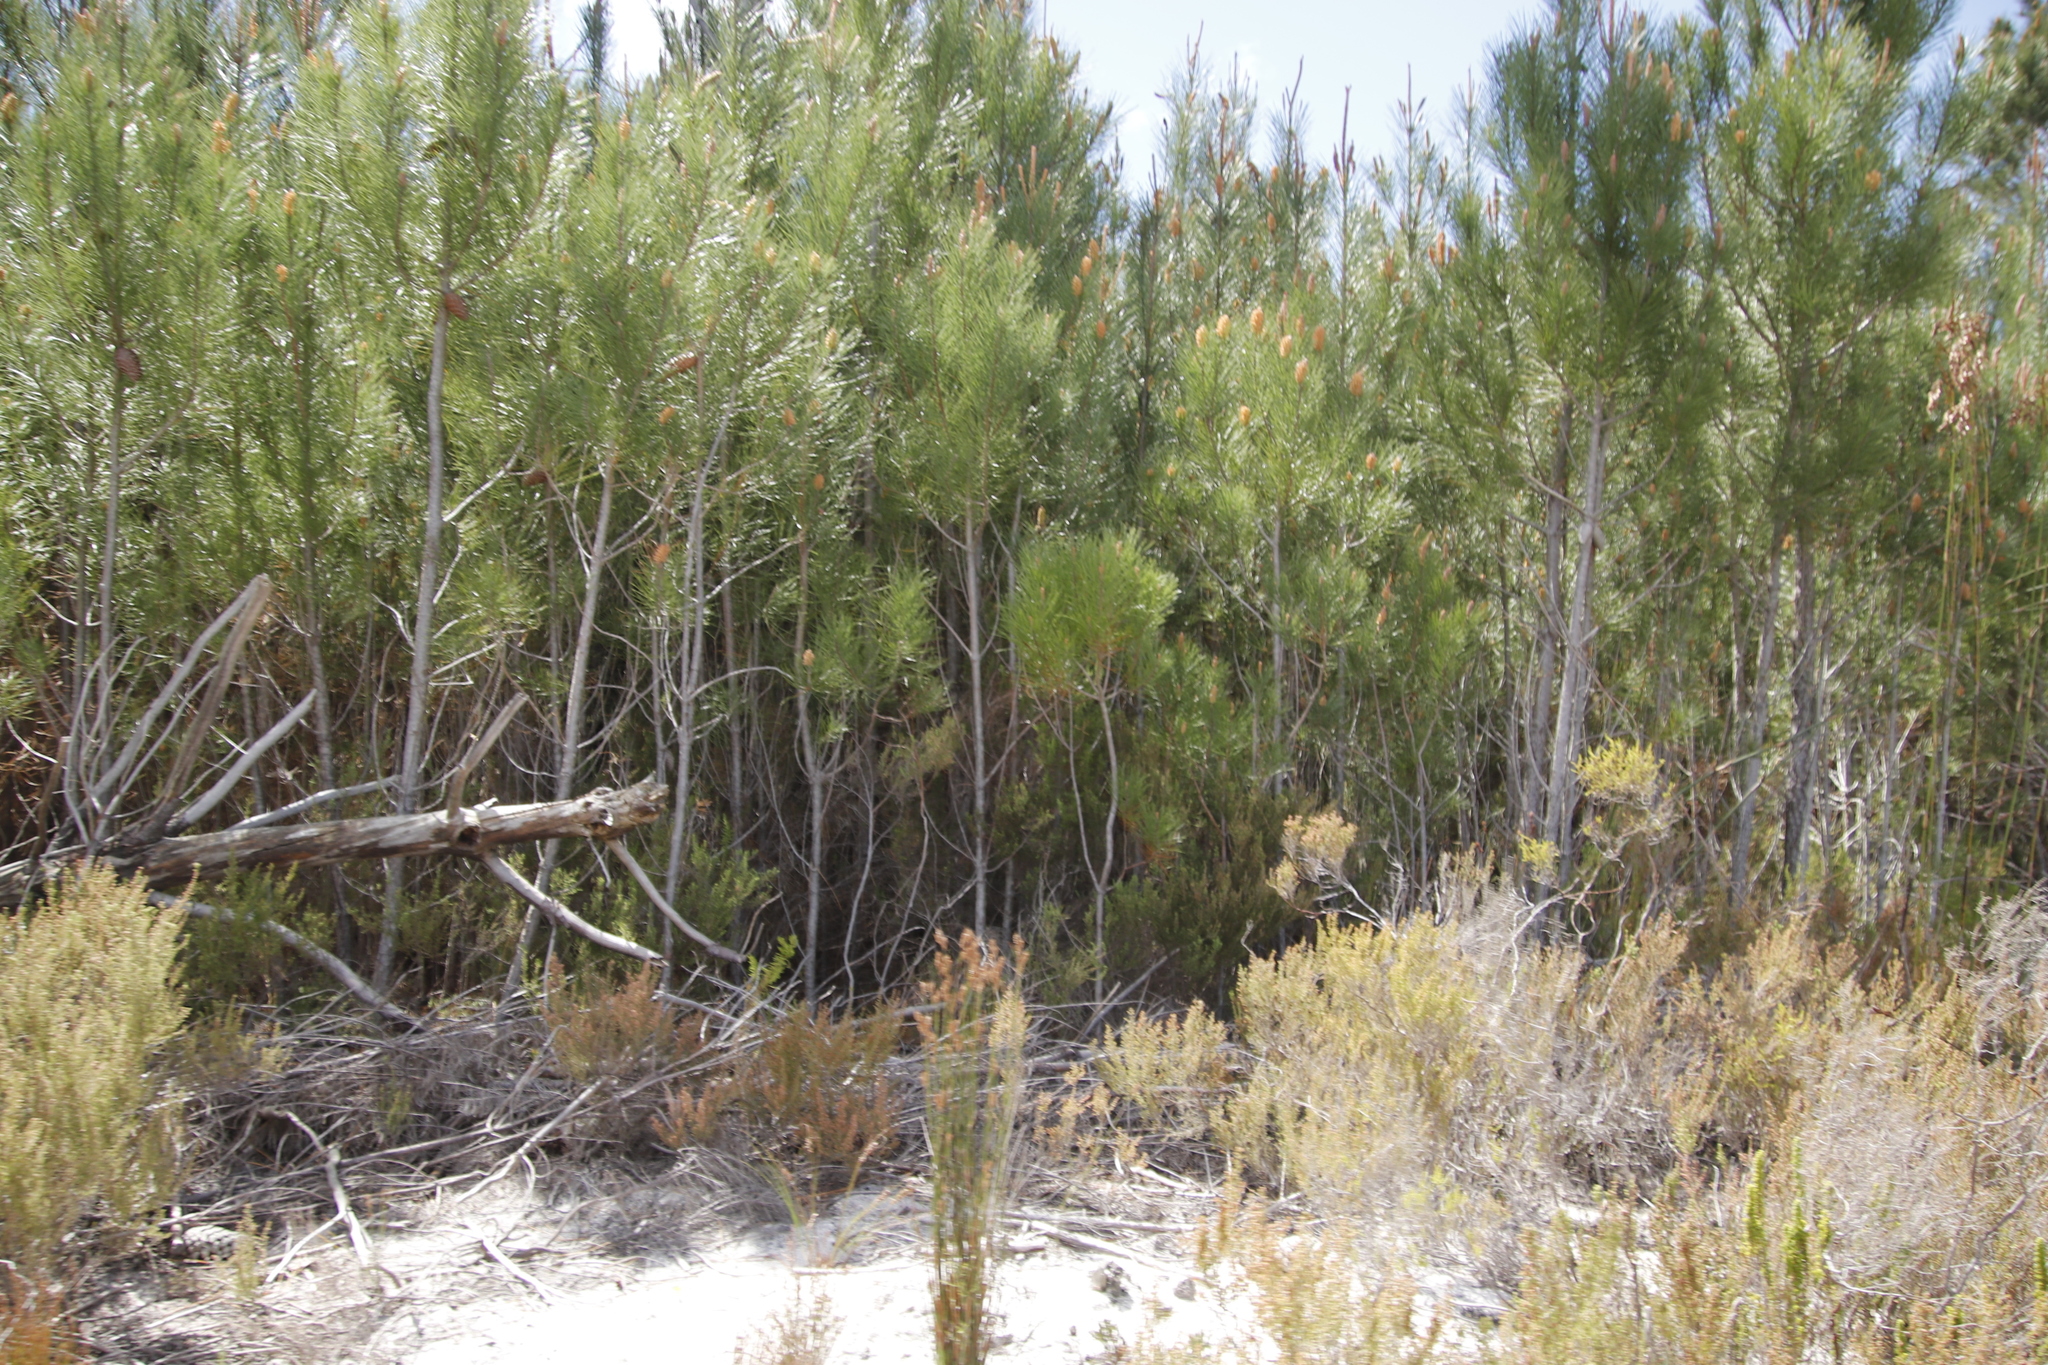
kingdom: Plantae
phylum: Tracheophyta
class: Pinopsida
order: Pinales
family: Pinaceae
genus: Pinus
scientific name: Pinus pinaster
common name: Maritime pine
